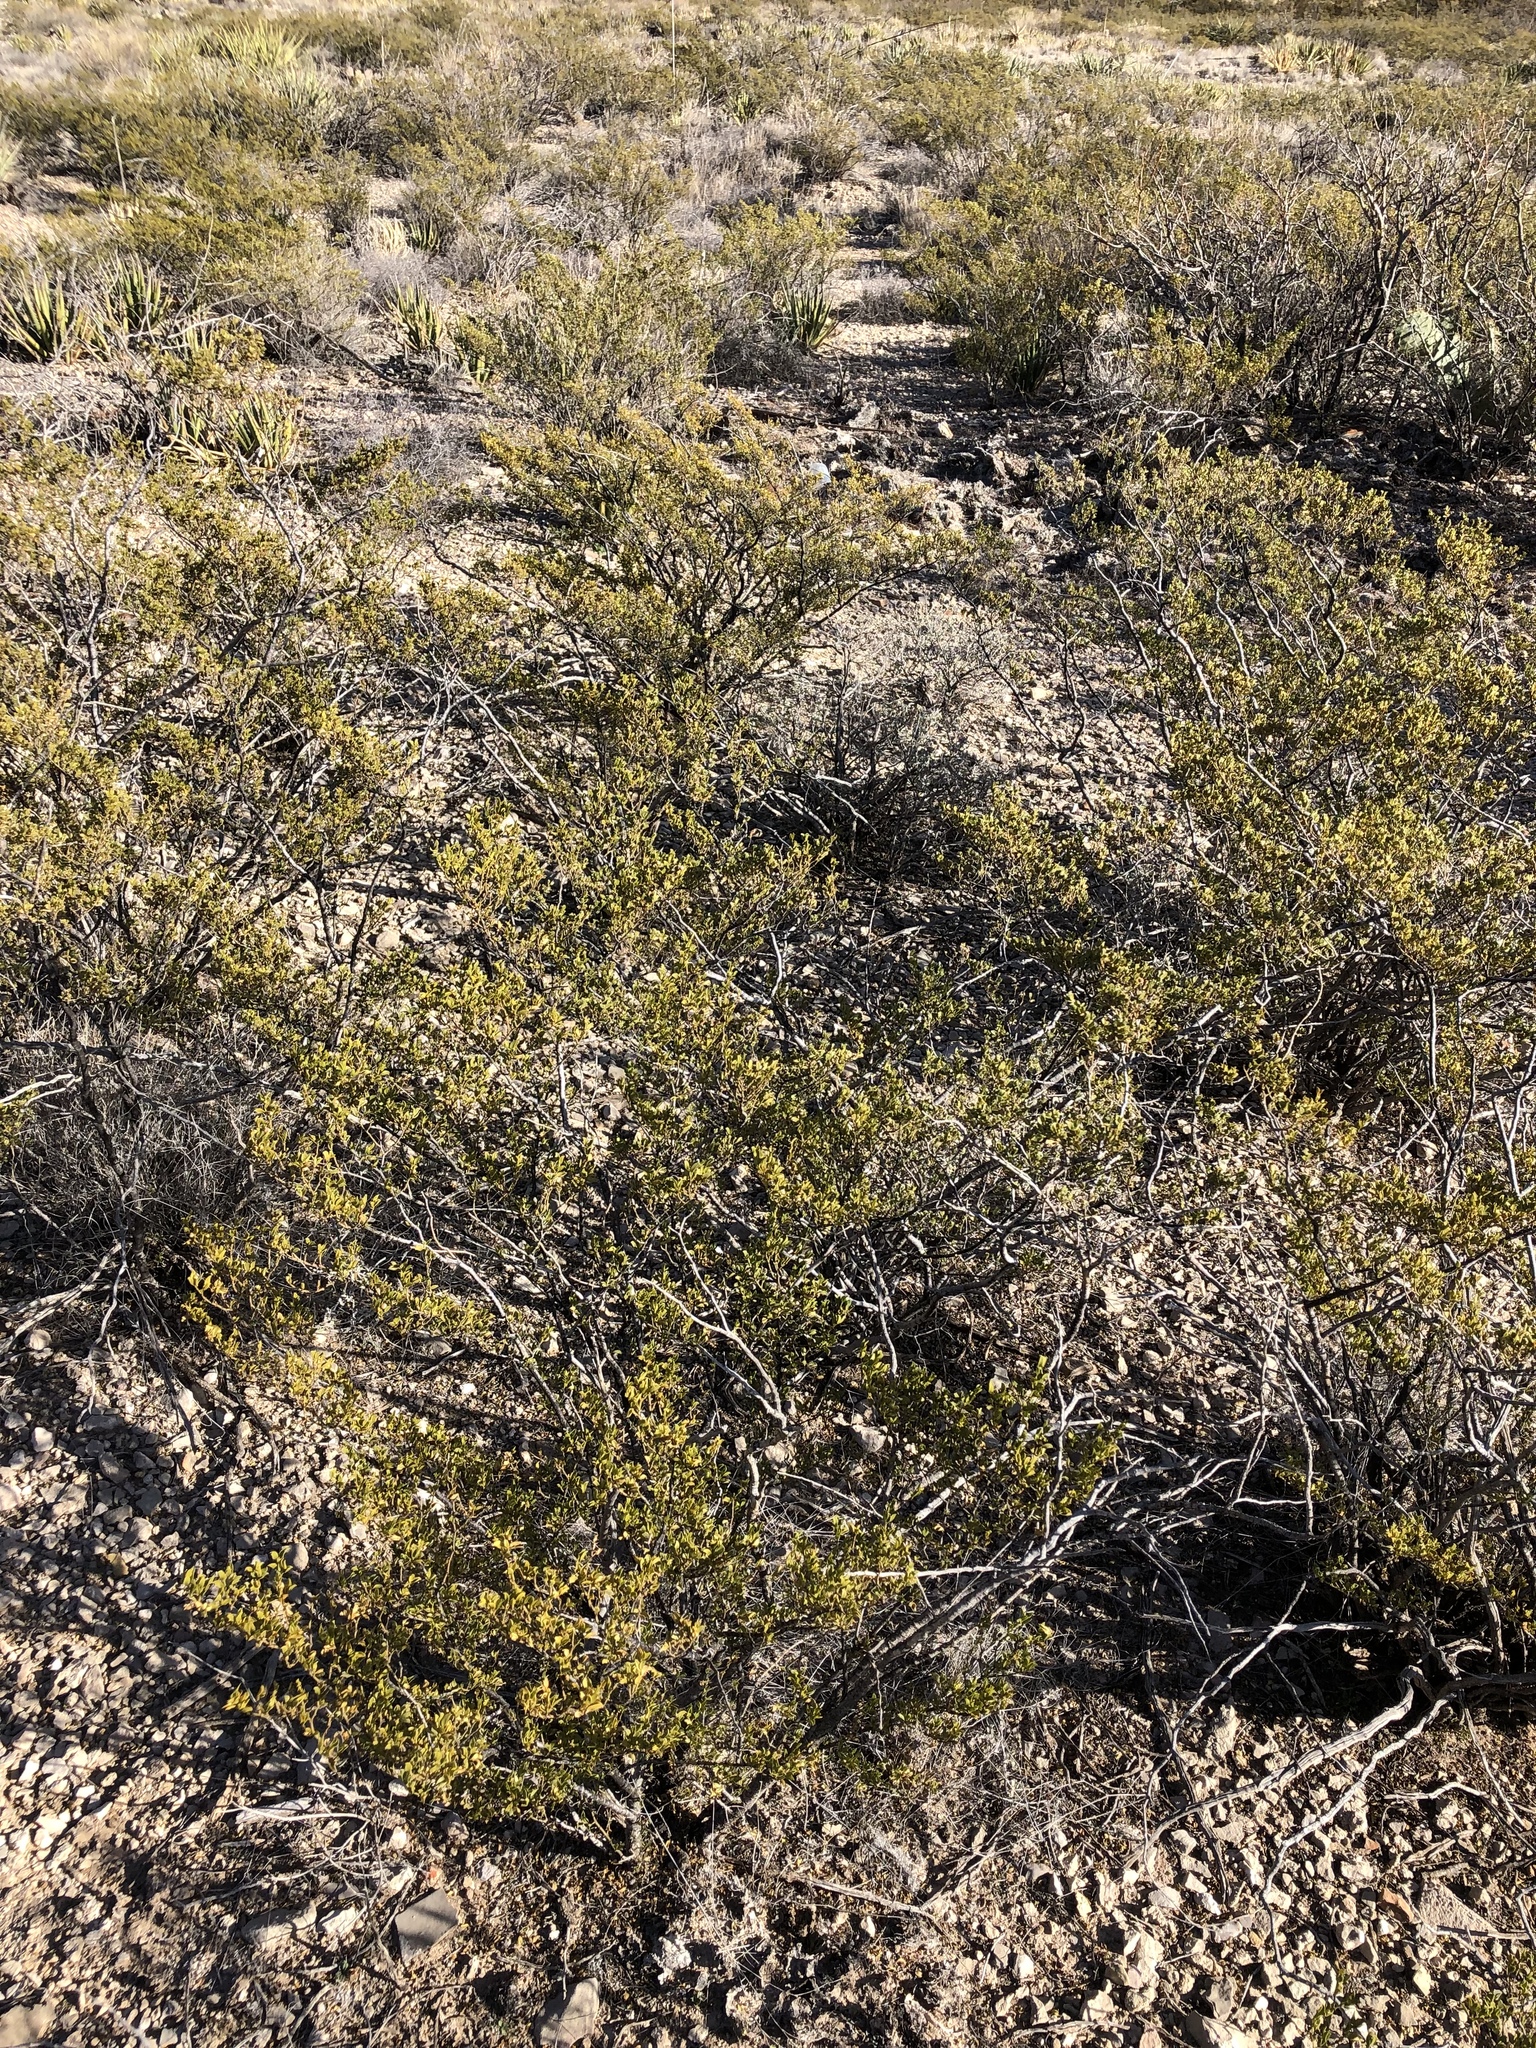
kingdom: Plantae
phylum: Tracheophyta
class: Magnoliopsida
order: Zygophyllales
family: Zygophyllaceae
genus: Larrea
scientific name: Larrea tridentata
